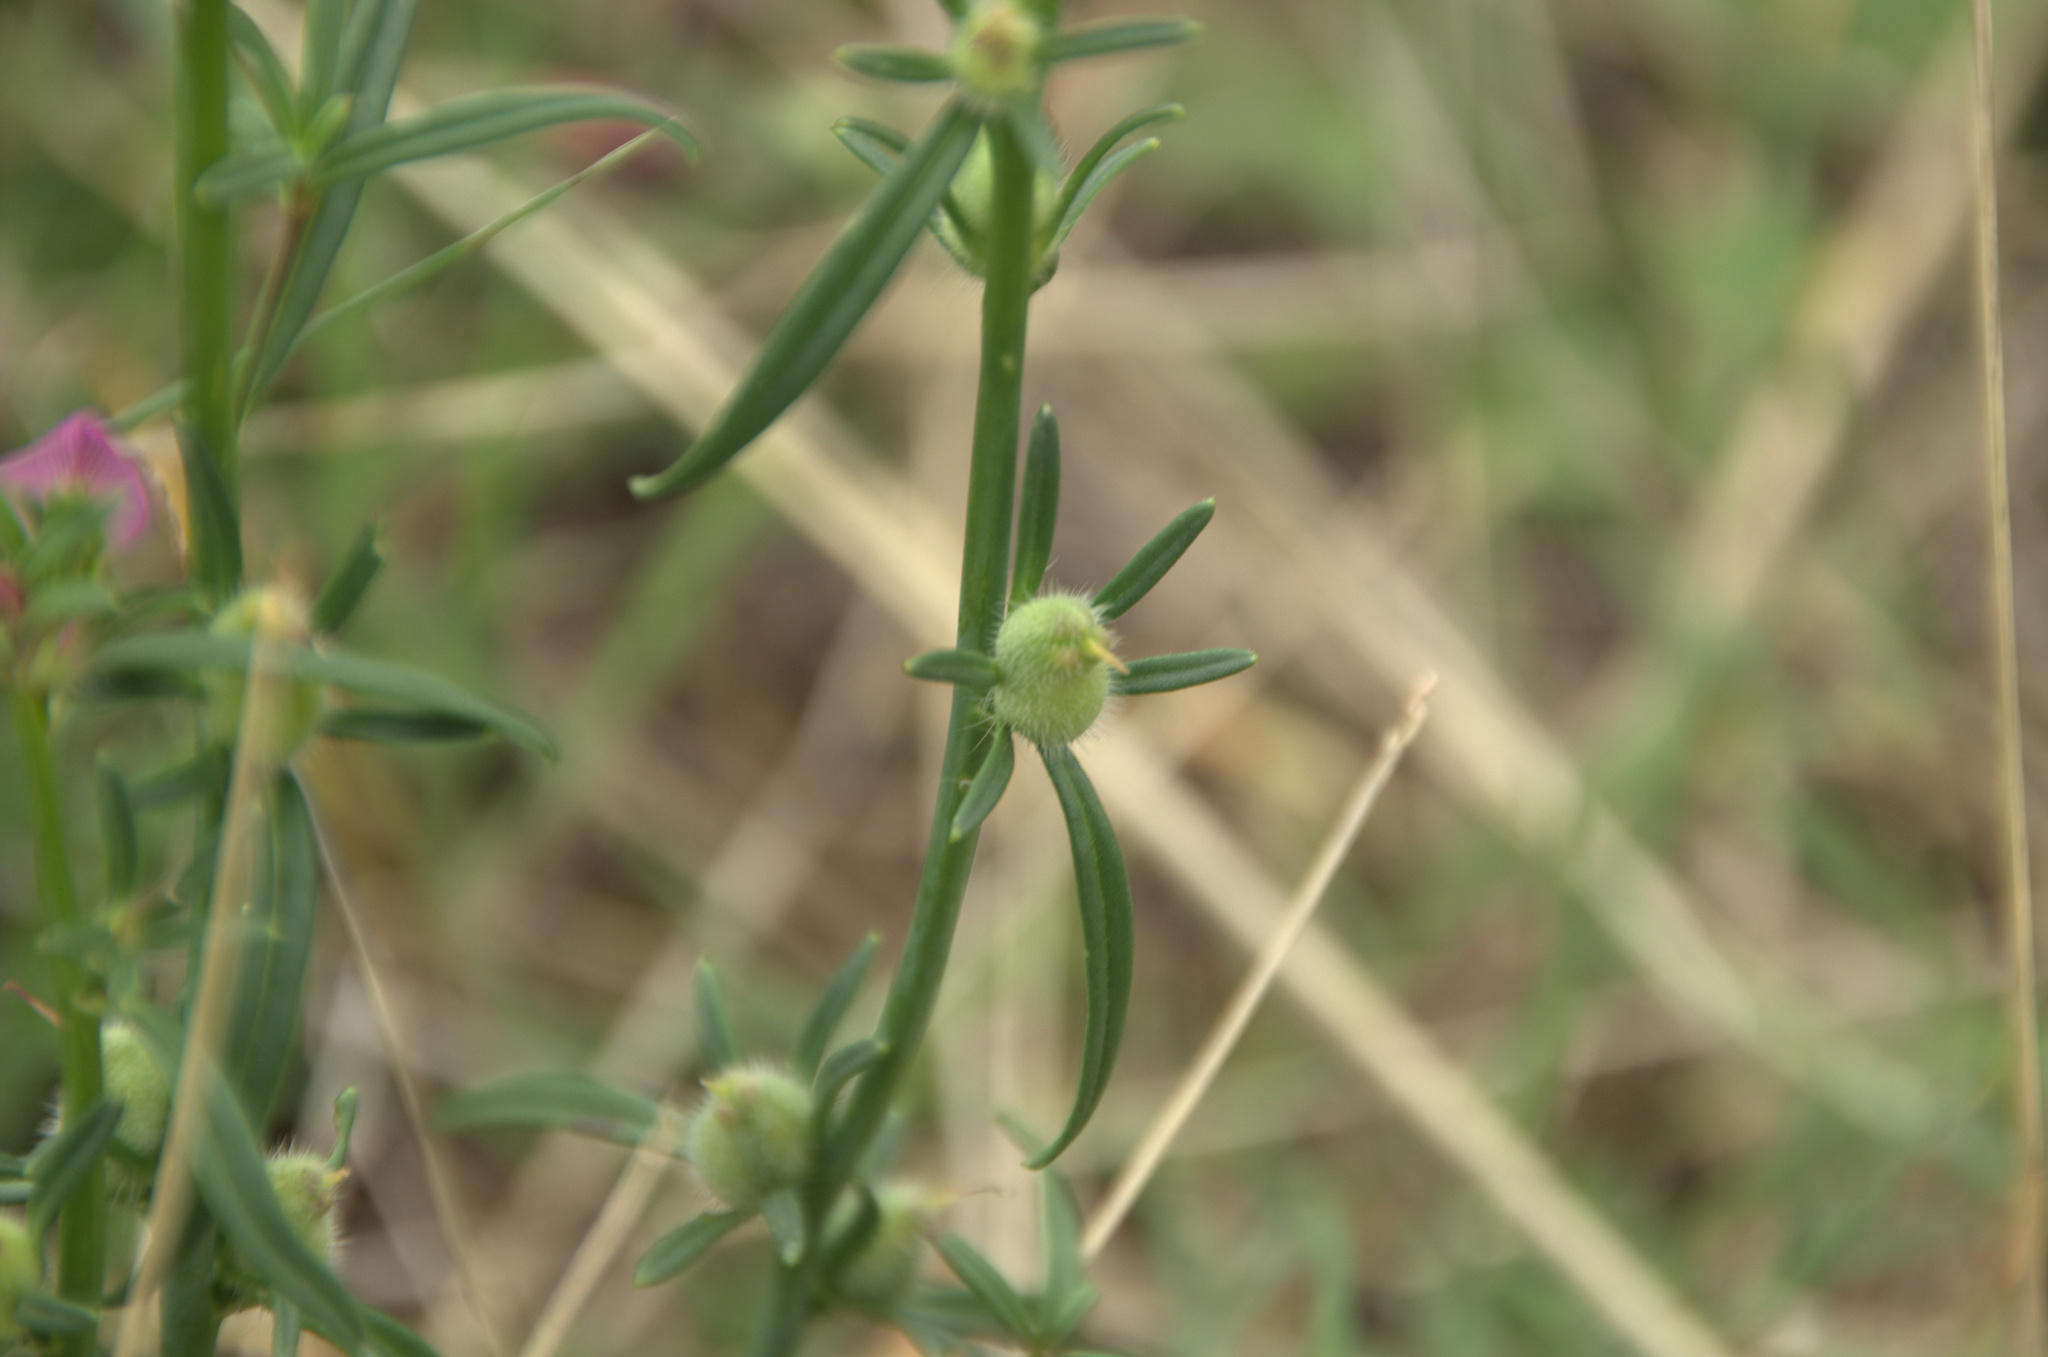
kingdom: Plantae
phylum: Tracheophyta
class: Magnoliopsida
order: Lamiales
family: Plantaginaceae
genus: Misopates
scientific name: Misopates orontium
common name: Weasel's-snout
